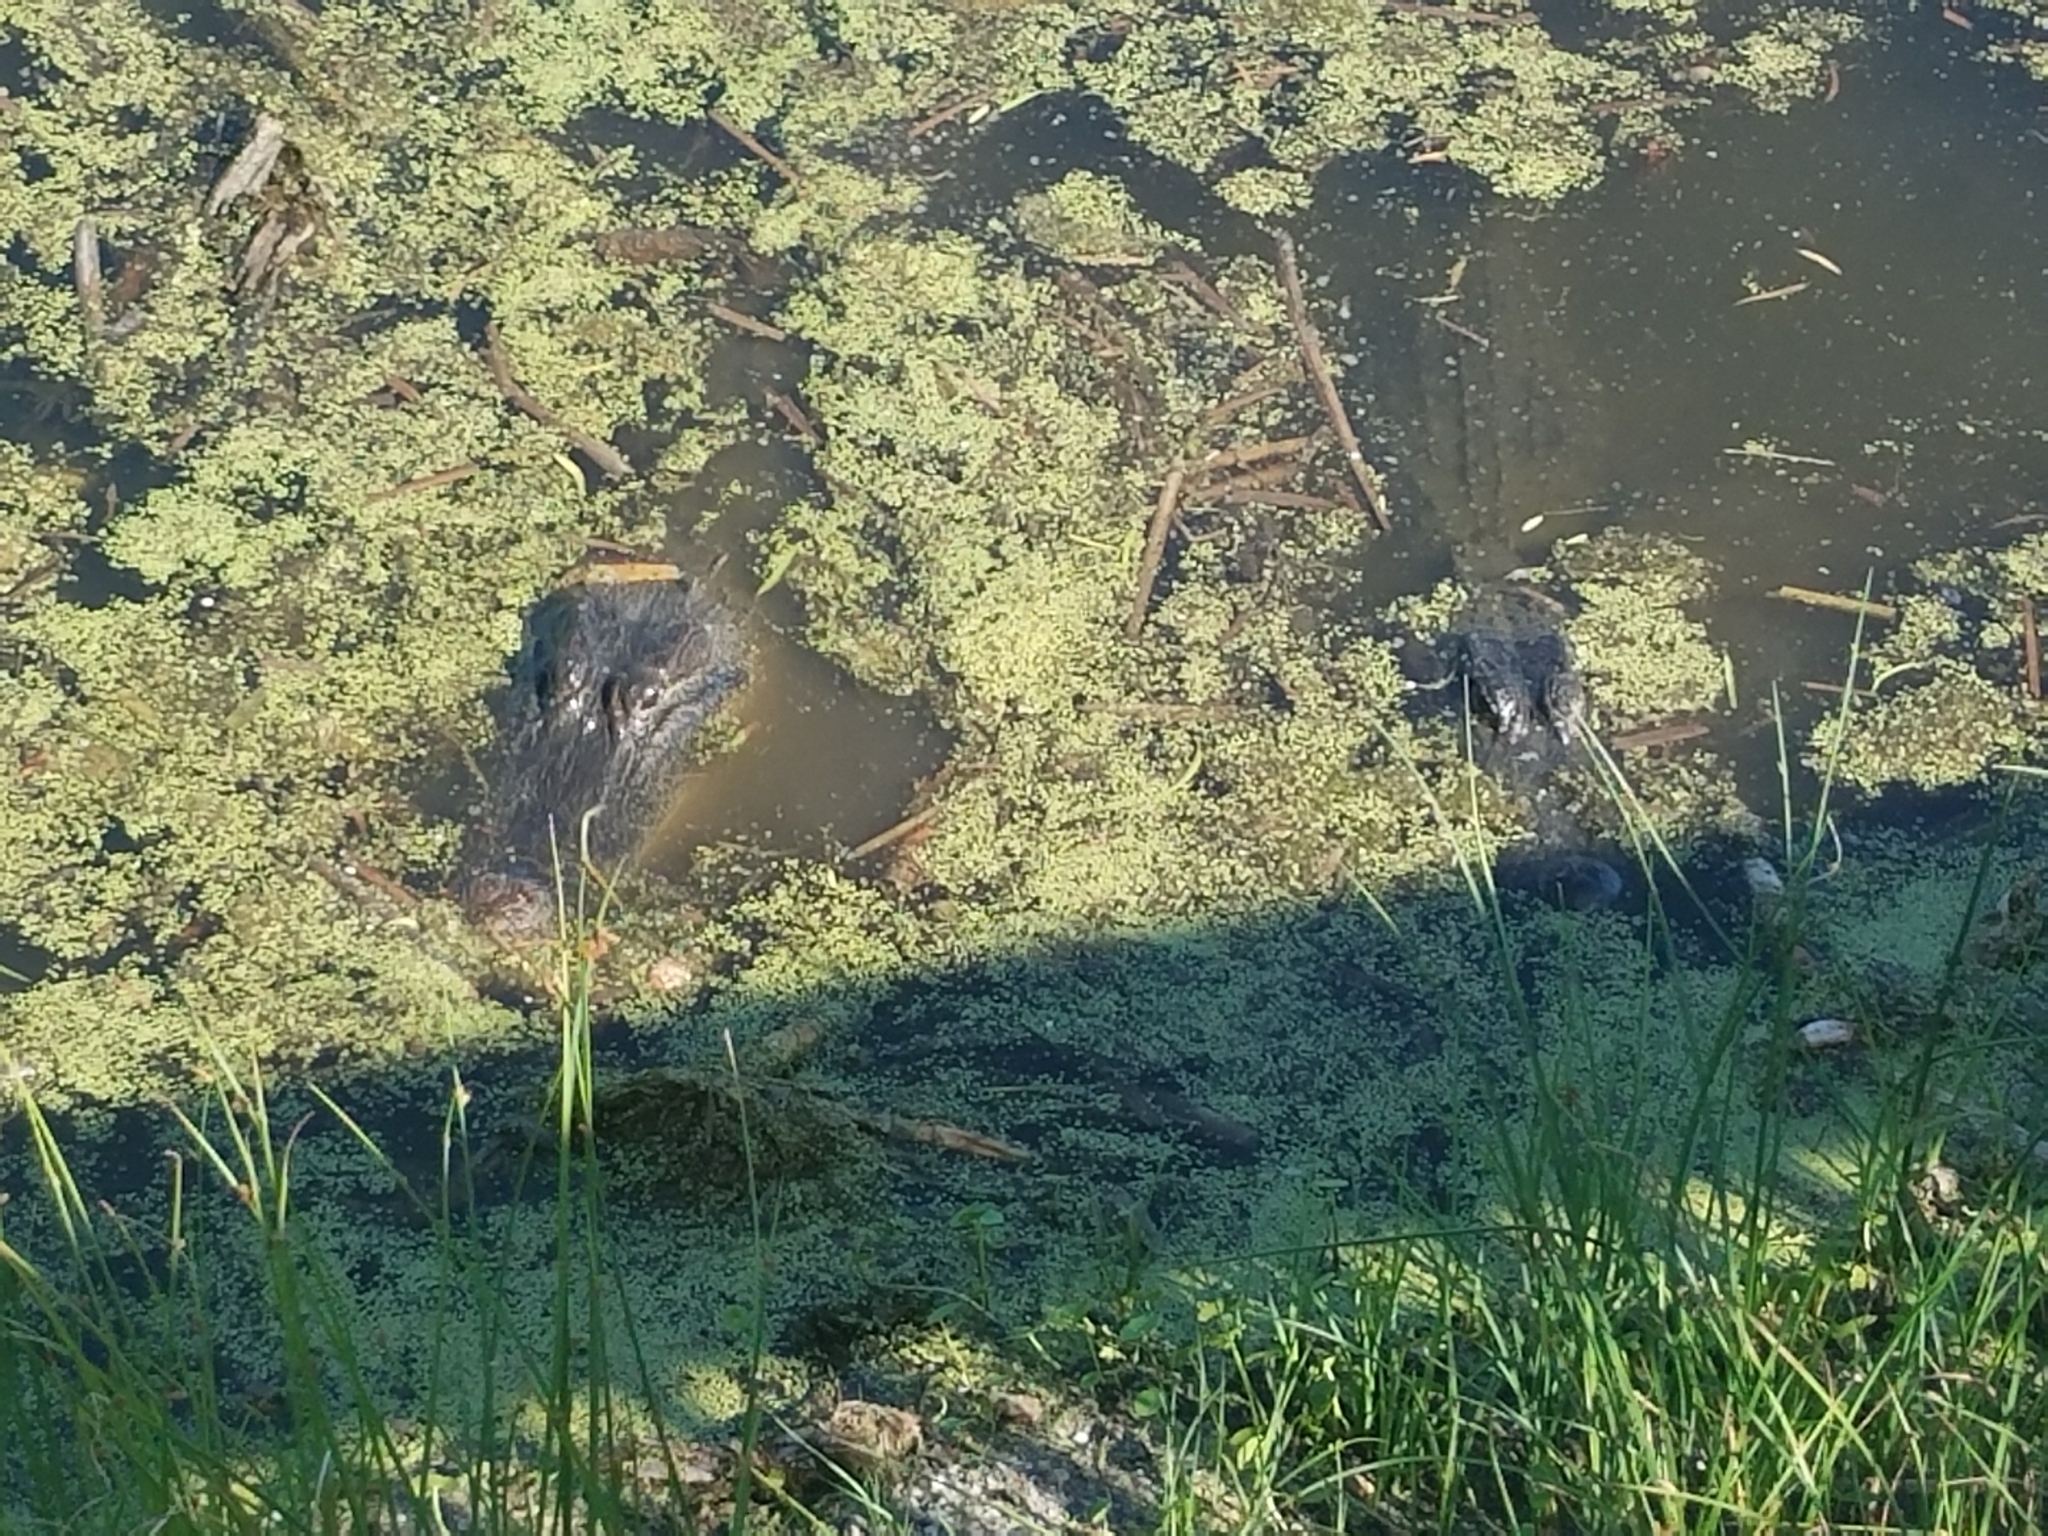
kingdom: Animalia
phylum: Chordata
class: Crocodylia
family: Alligatoridae
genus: Alligator
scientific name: Alligator mississippiensis
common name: American alligator
